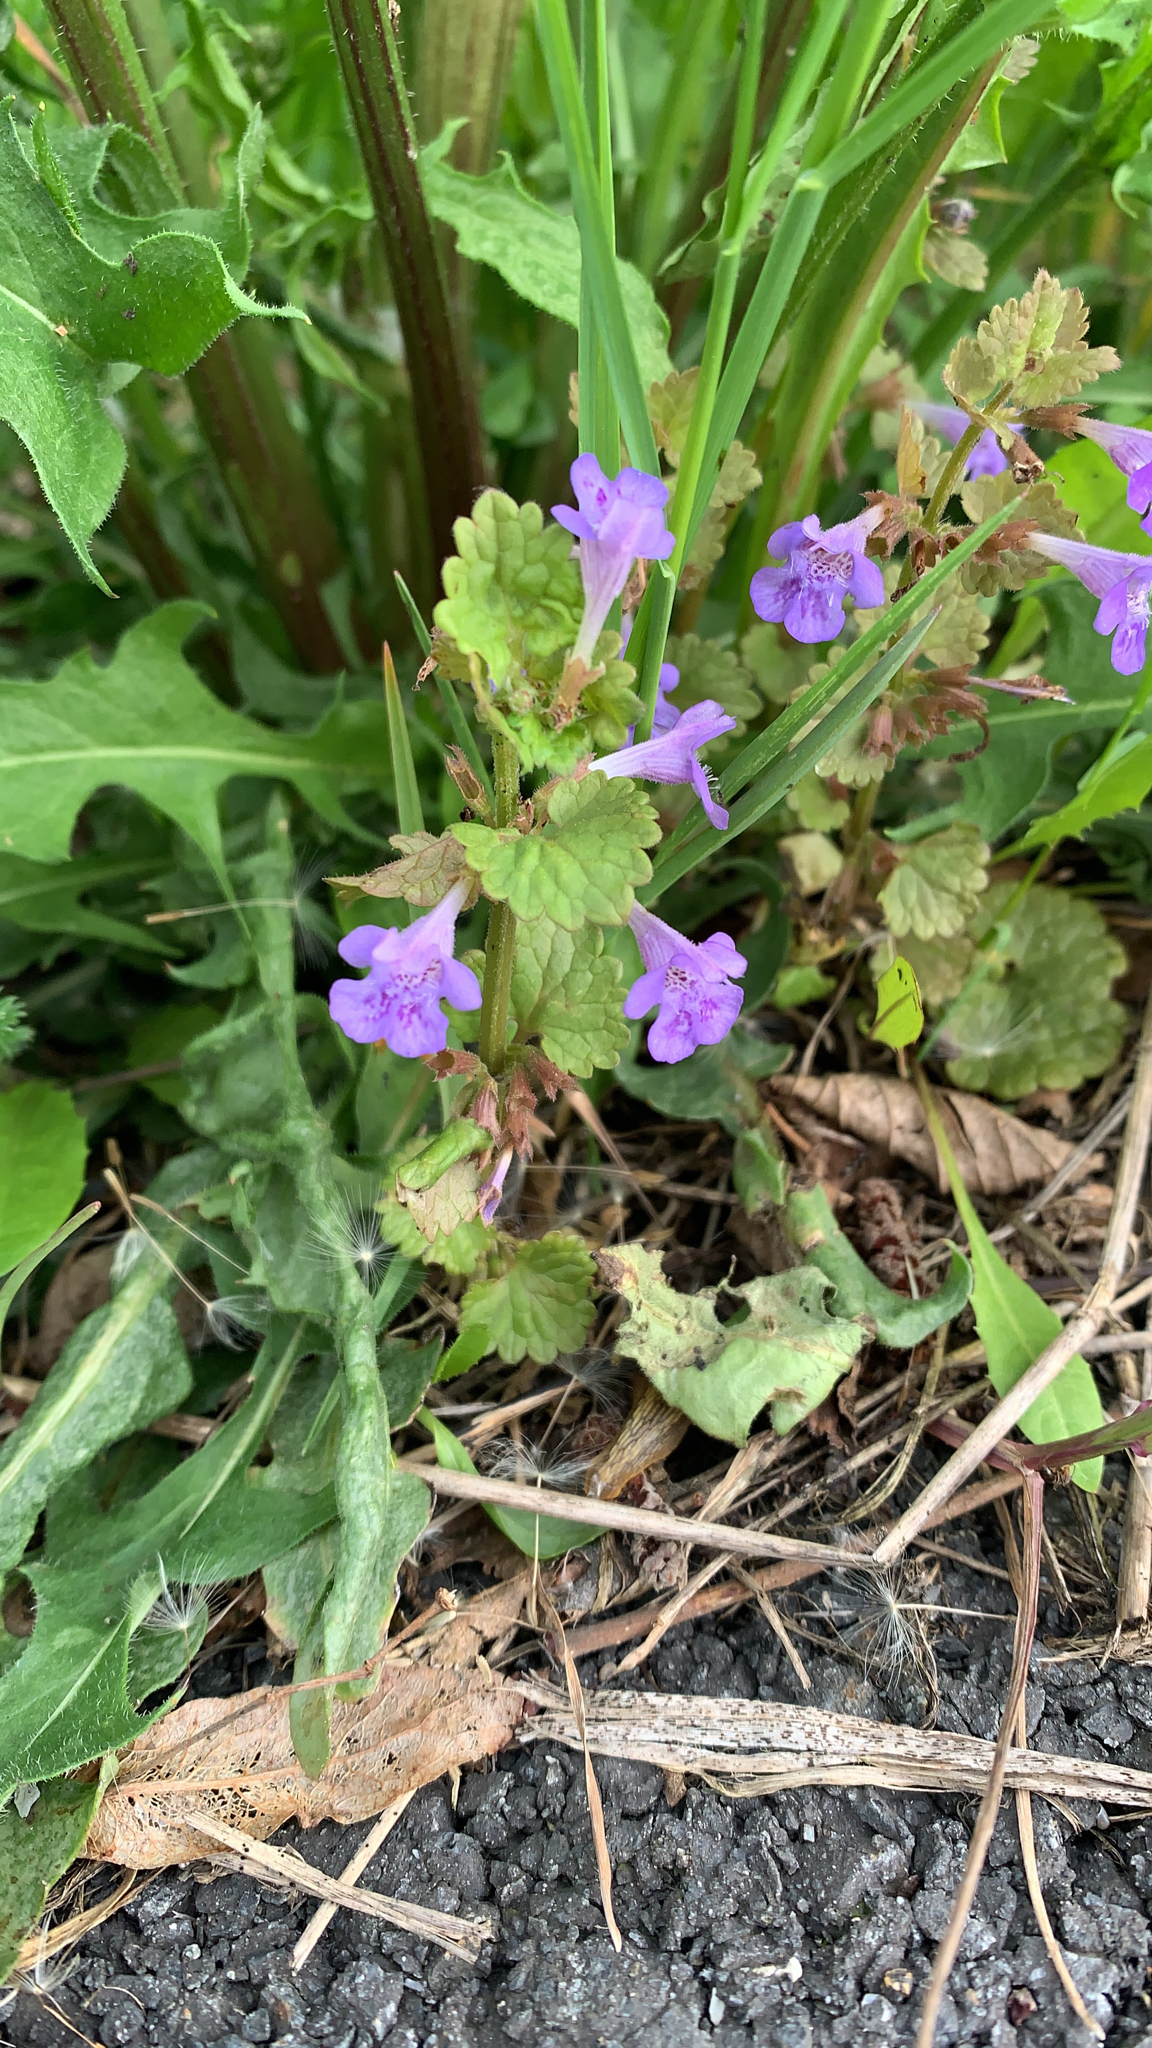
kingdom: Plantae
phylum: Tracheophyta
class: Magnoliopsida
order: Lamiales
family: Lamiaceae
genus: Glechoma
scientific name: Glechoma hederacea
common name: Ground ivy
